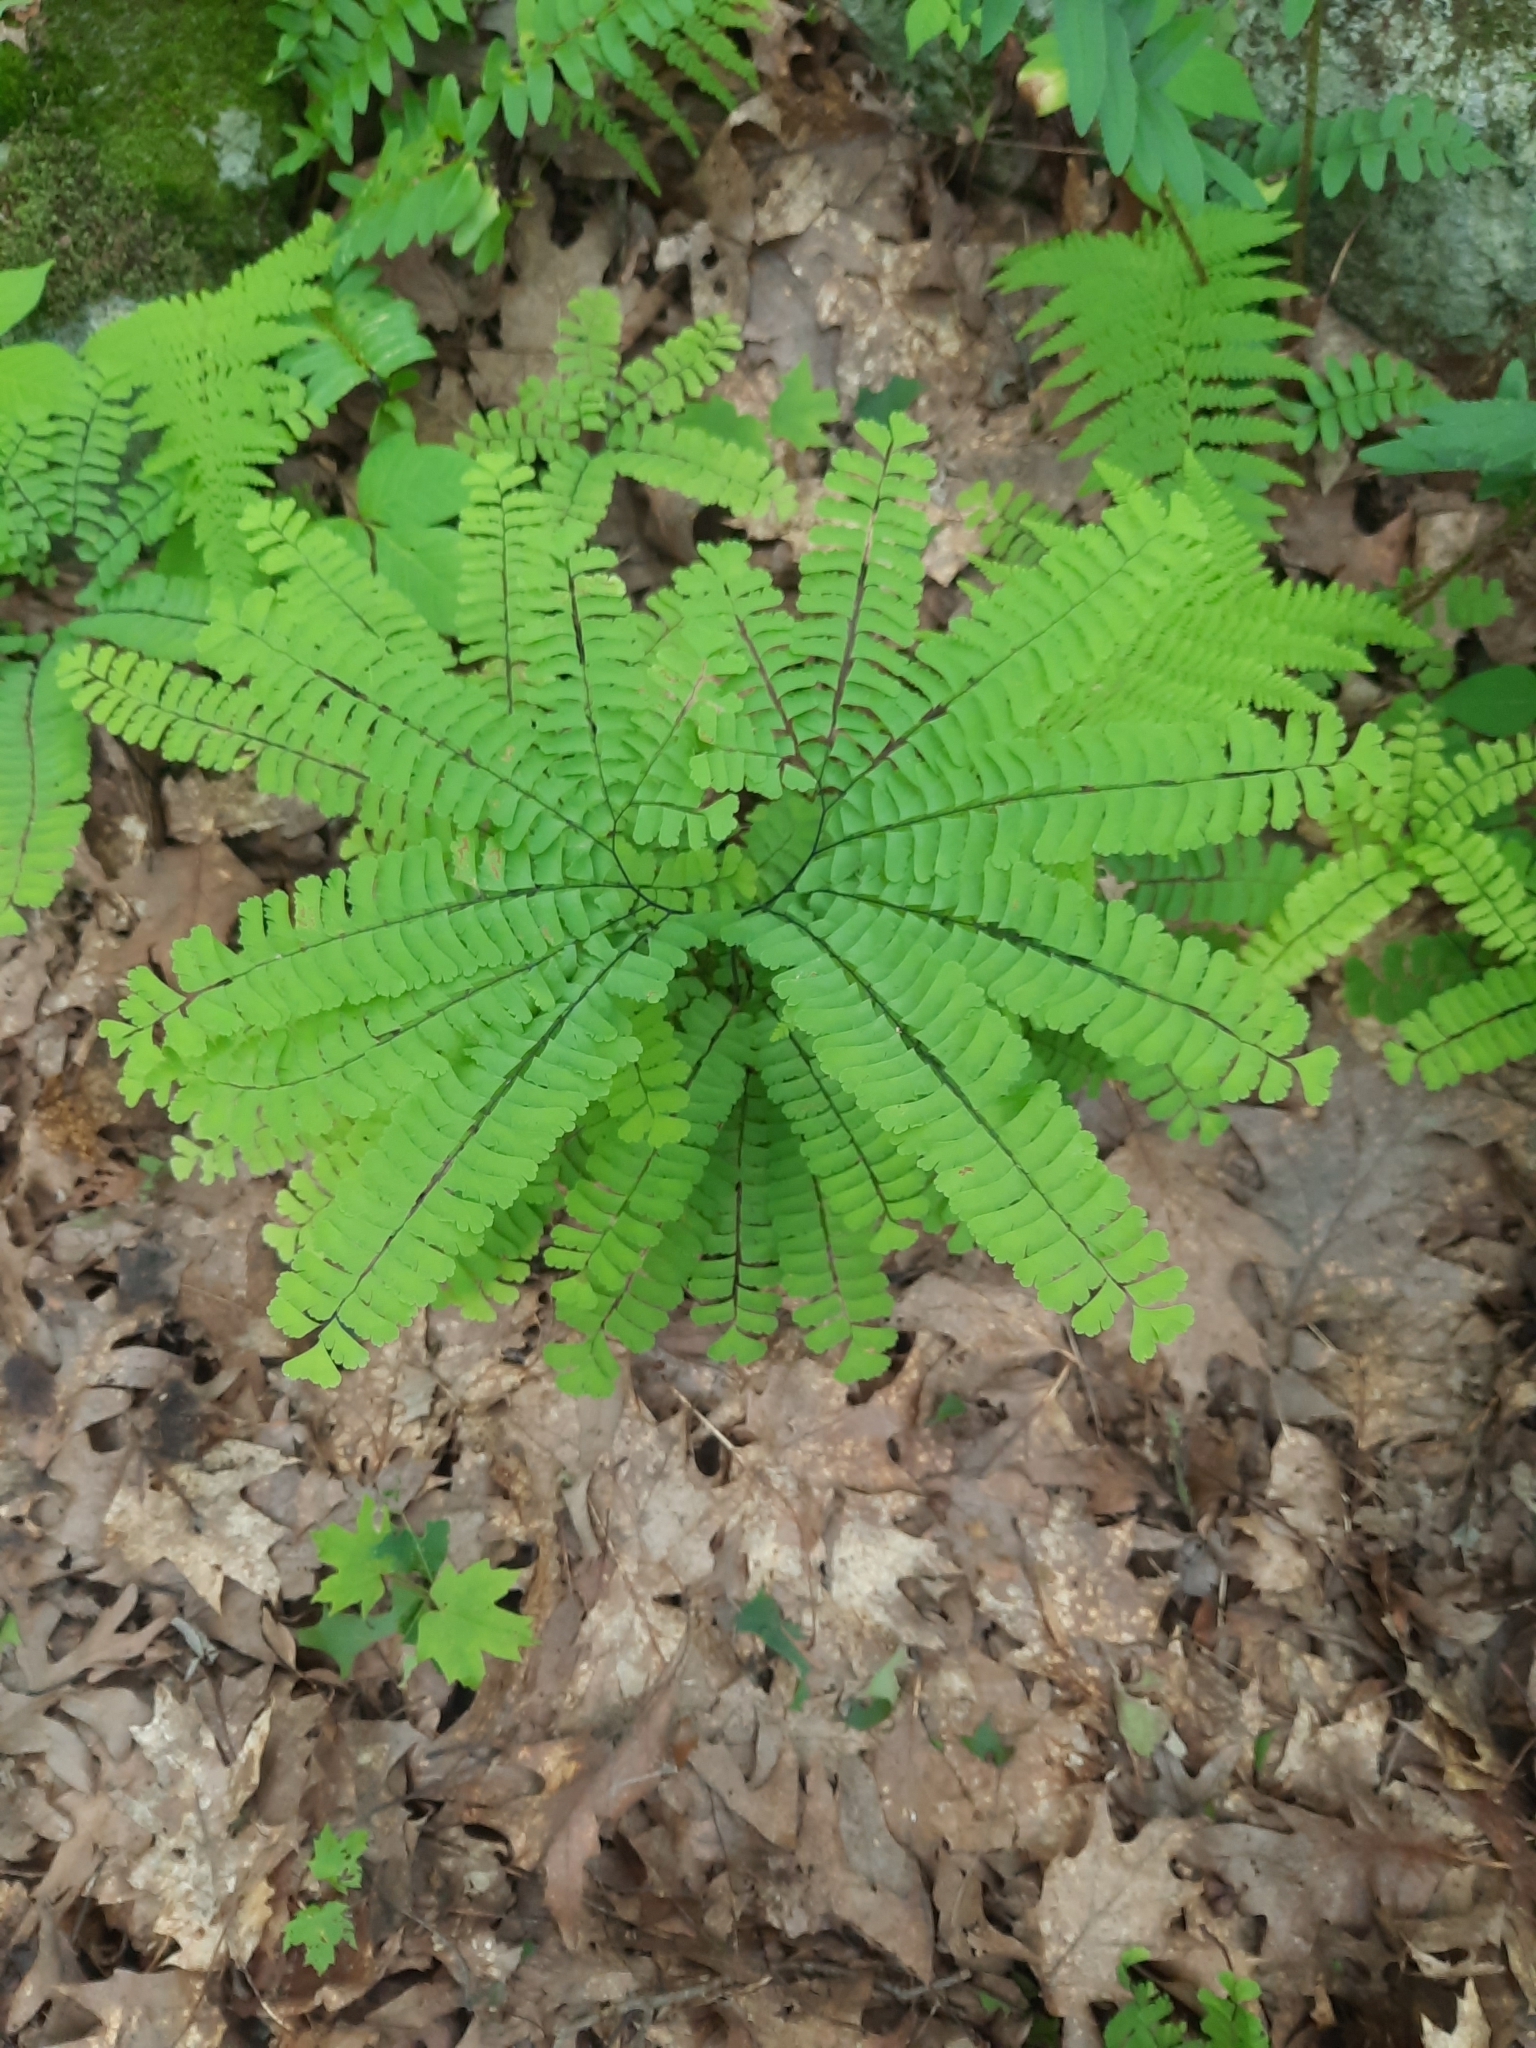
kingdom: Plantae
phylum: Tracheophyta
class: Polypodiopsida
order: Polypodiales
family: Pteridaceae
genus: Adiantum
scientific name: Adiantum pedatum
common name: Five-finger fern
